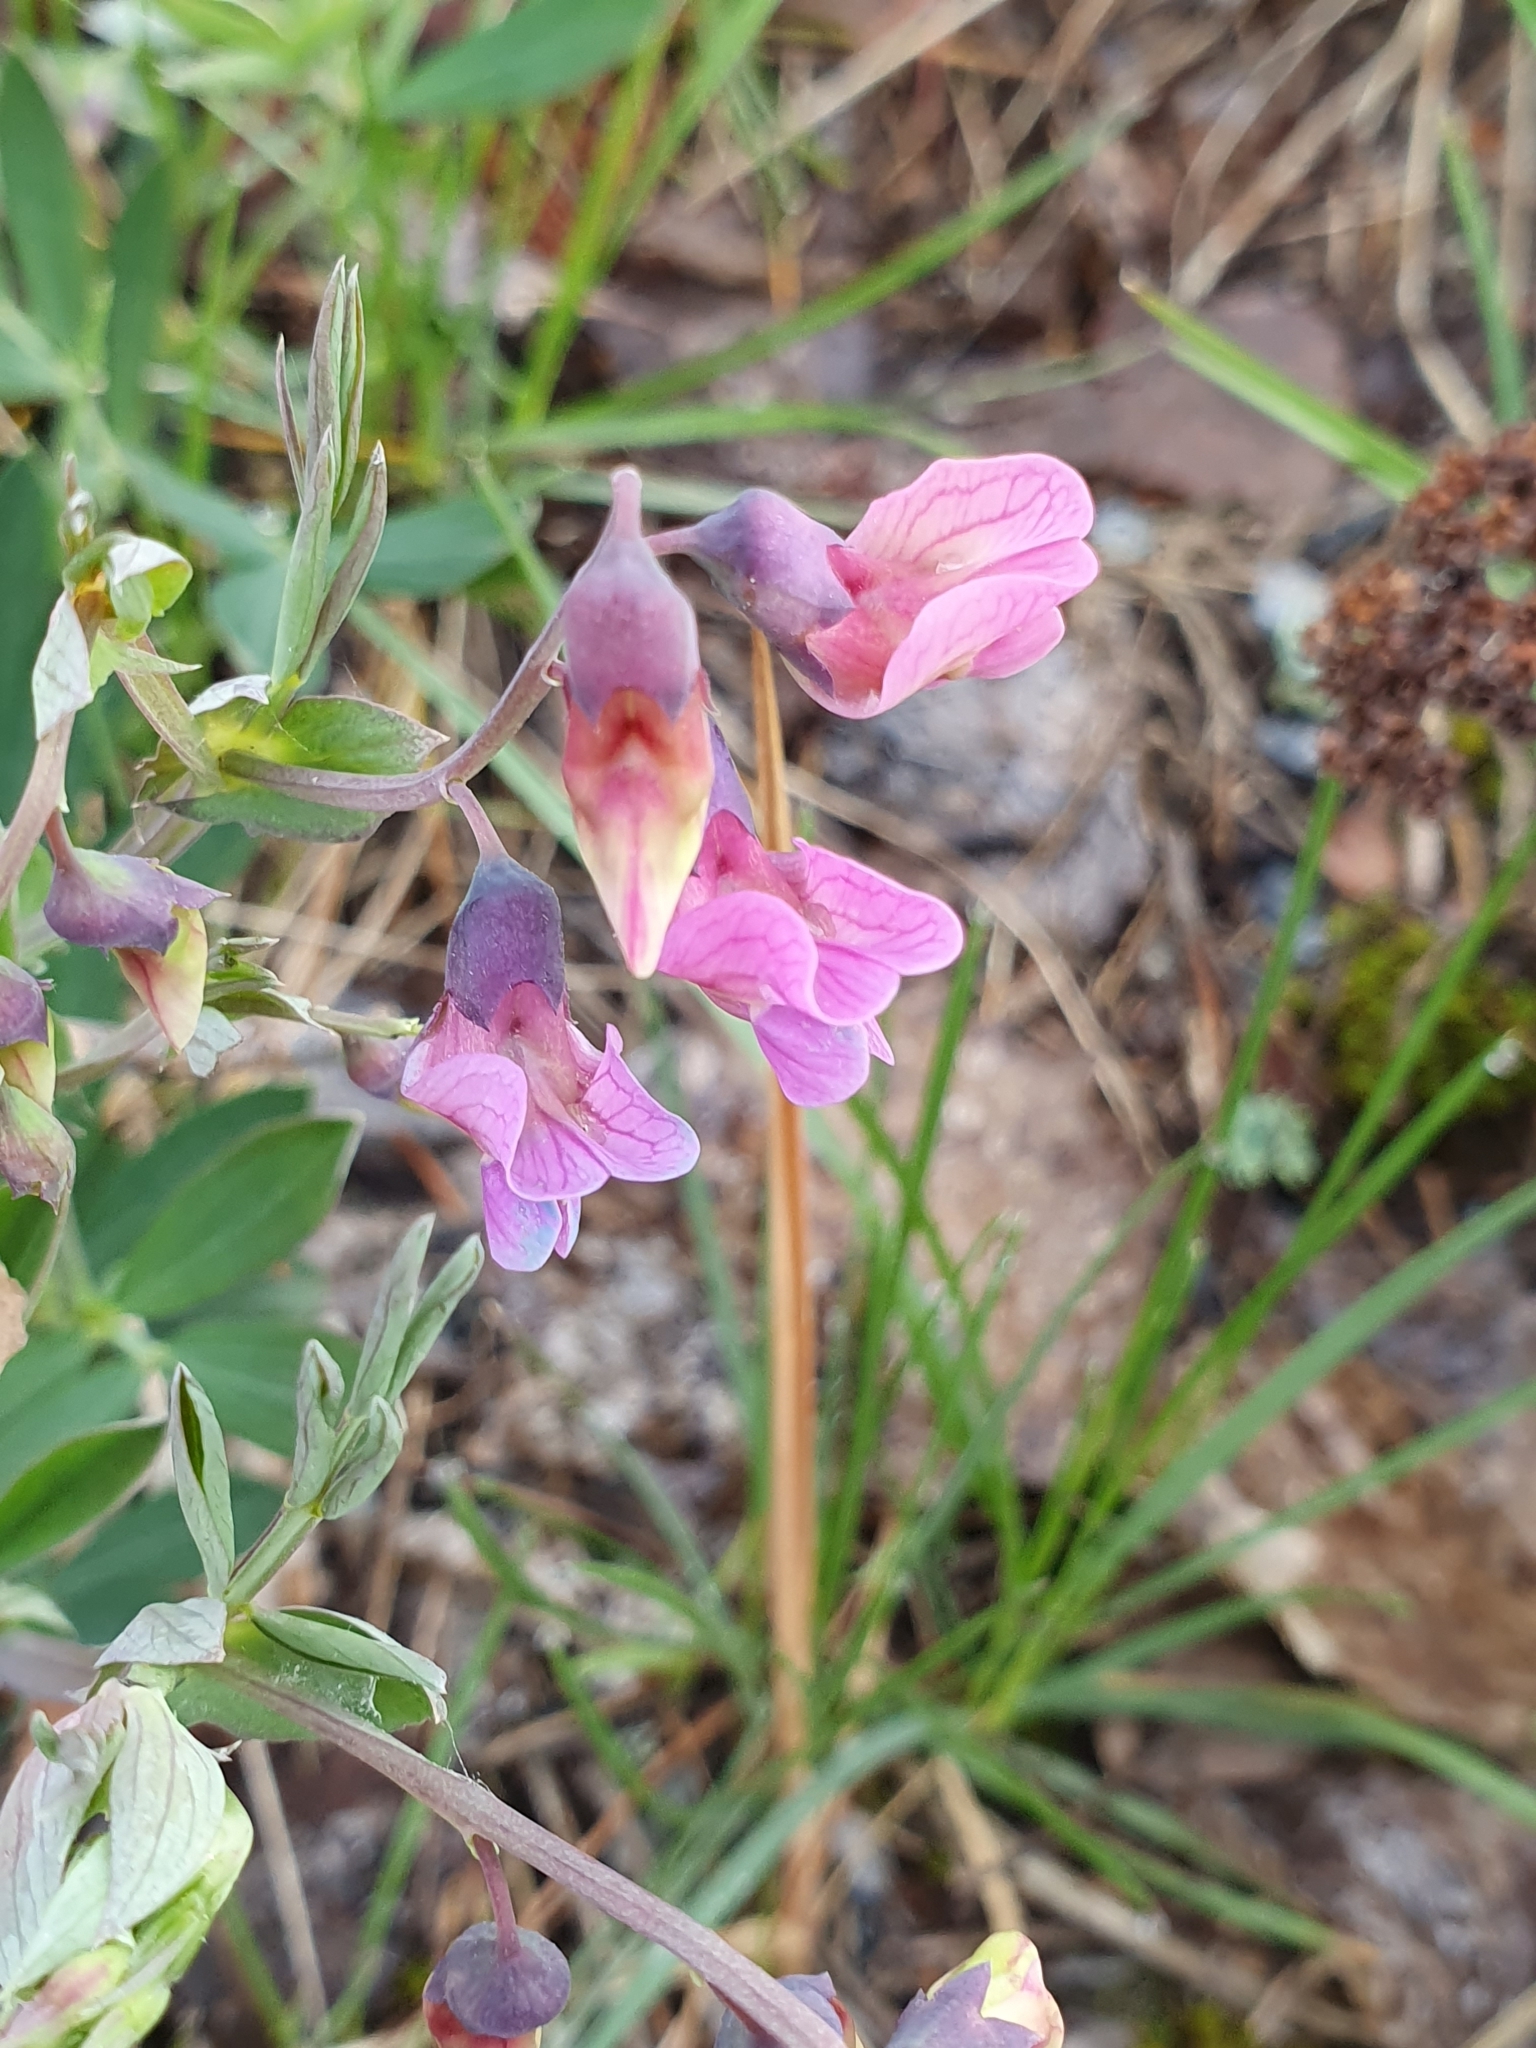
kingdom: Plantae
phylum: Tracheophyta
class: Magnoliopsida
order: Fabales
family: Fabaceae
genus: Lathyrus
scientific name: Lathyrus linifolius
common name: Bitter-vetch
